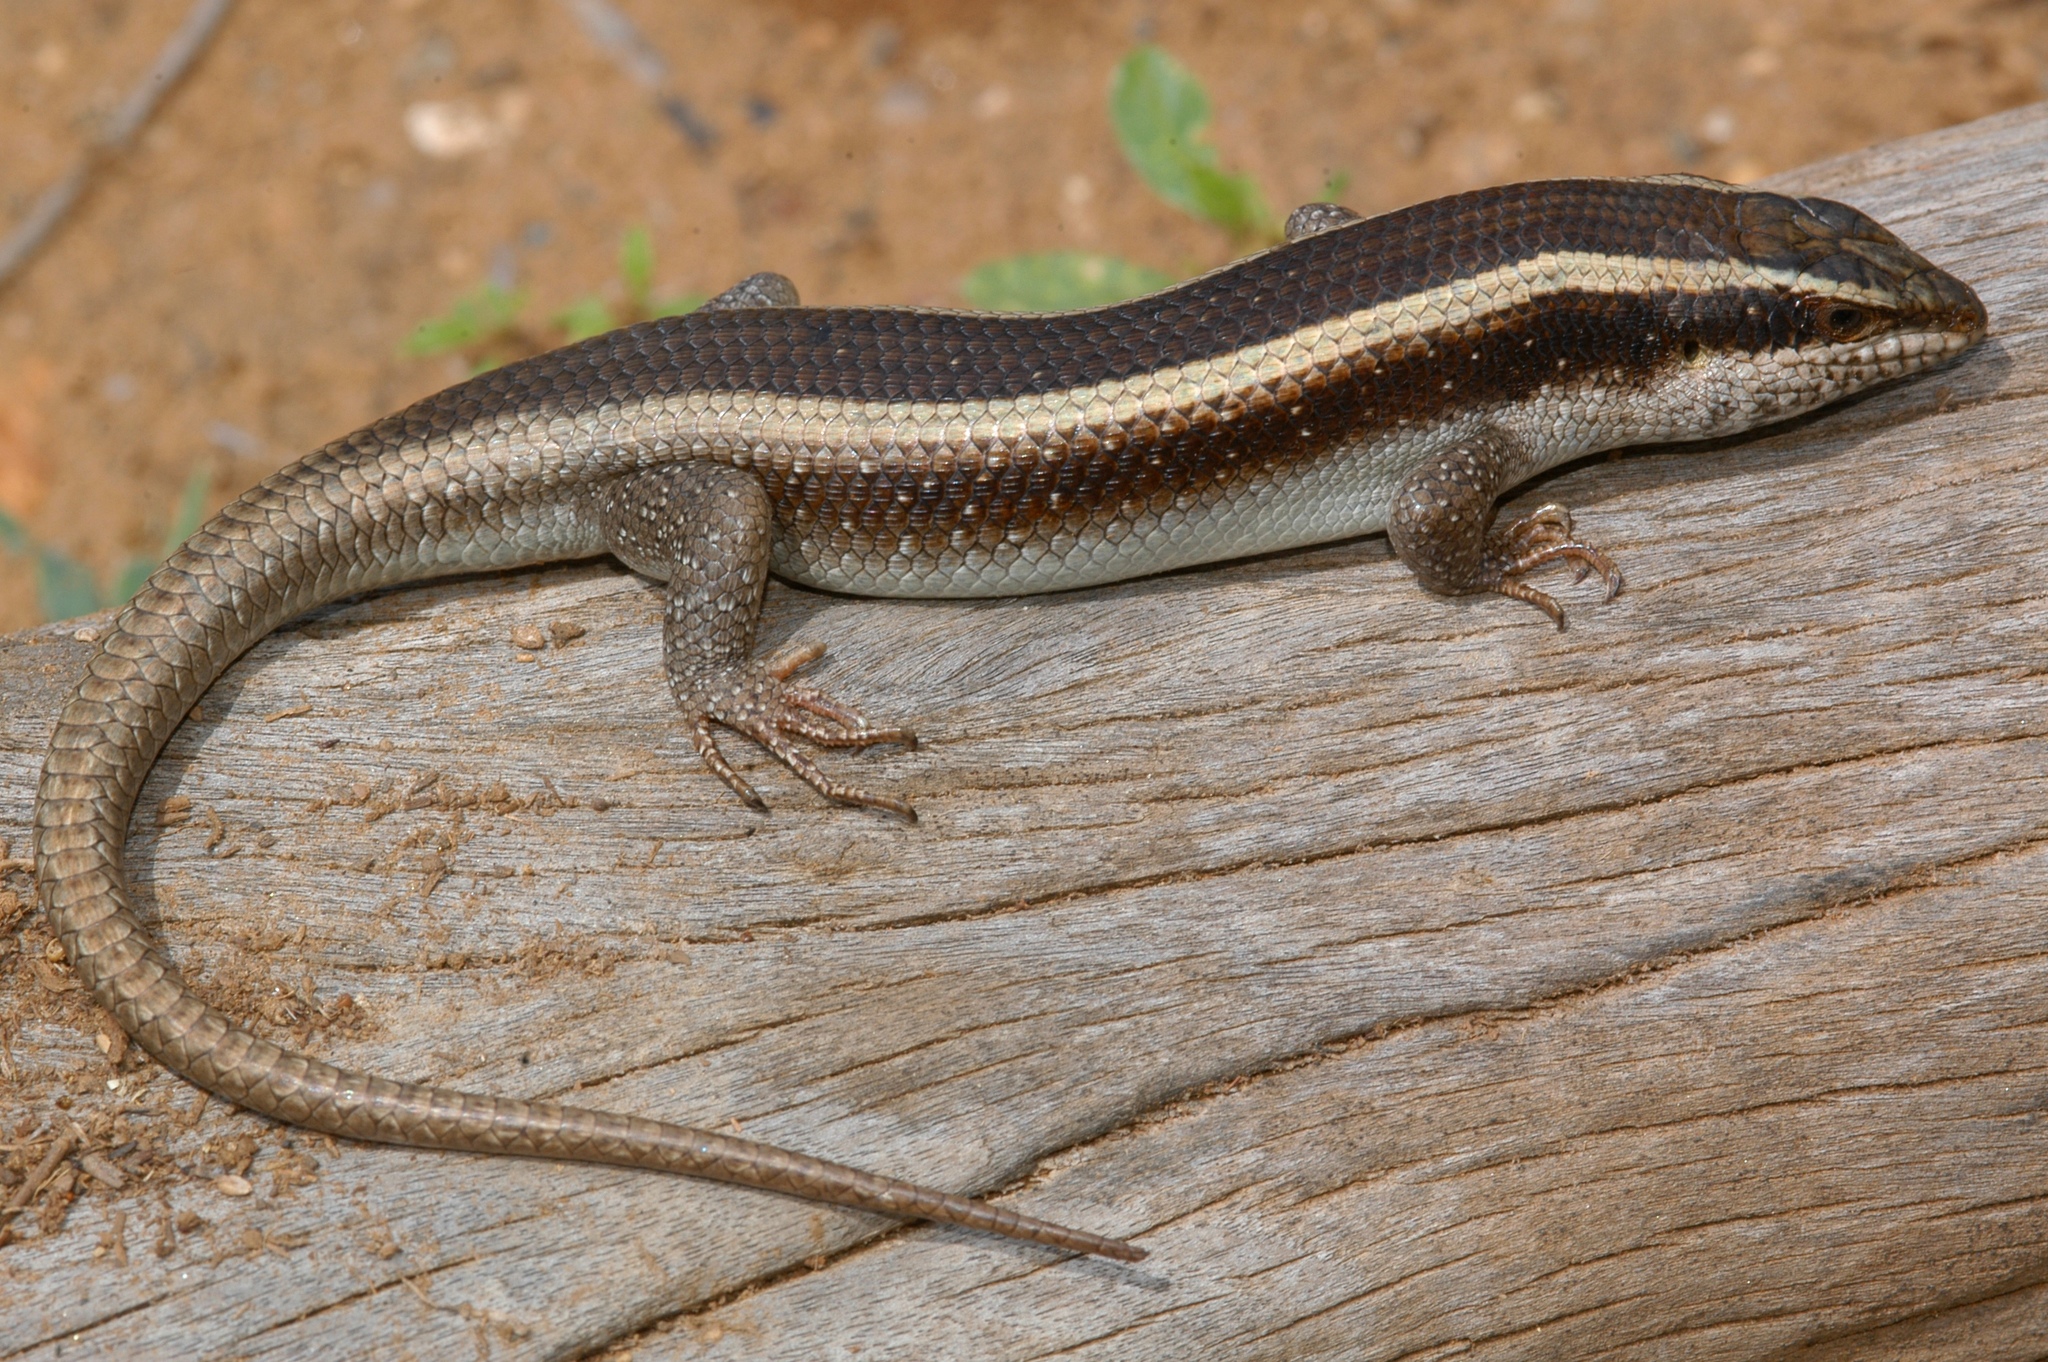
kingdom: Animalia
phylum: Chordata
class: Squamata
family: Scincidae
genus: Trachylepis
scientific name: Trachylepis striata
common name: African striped mabuya
